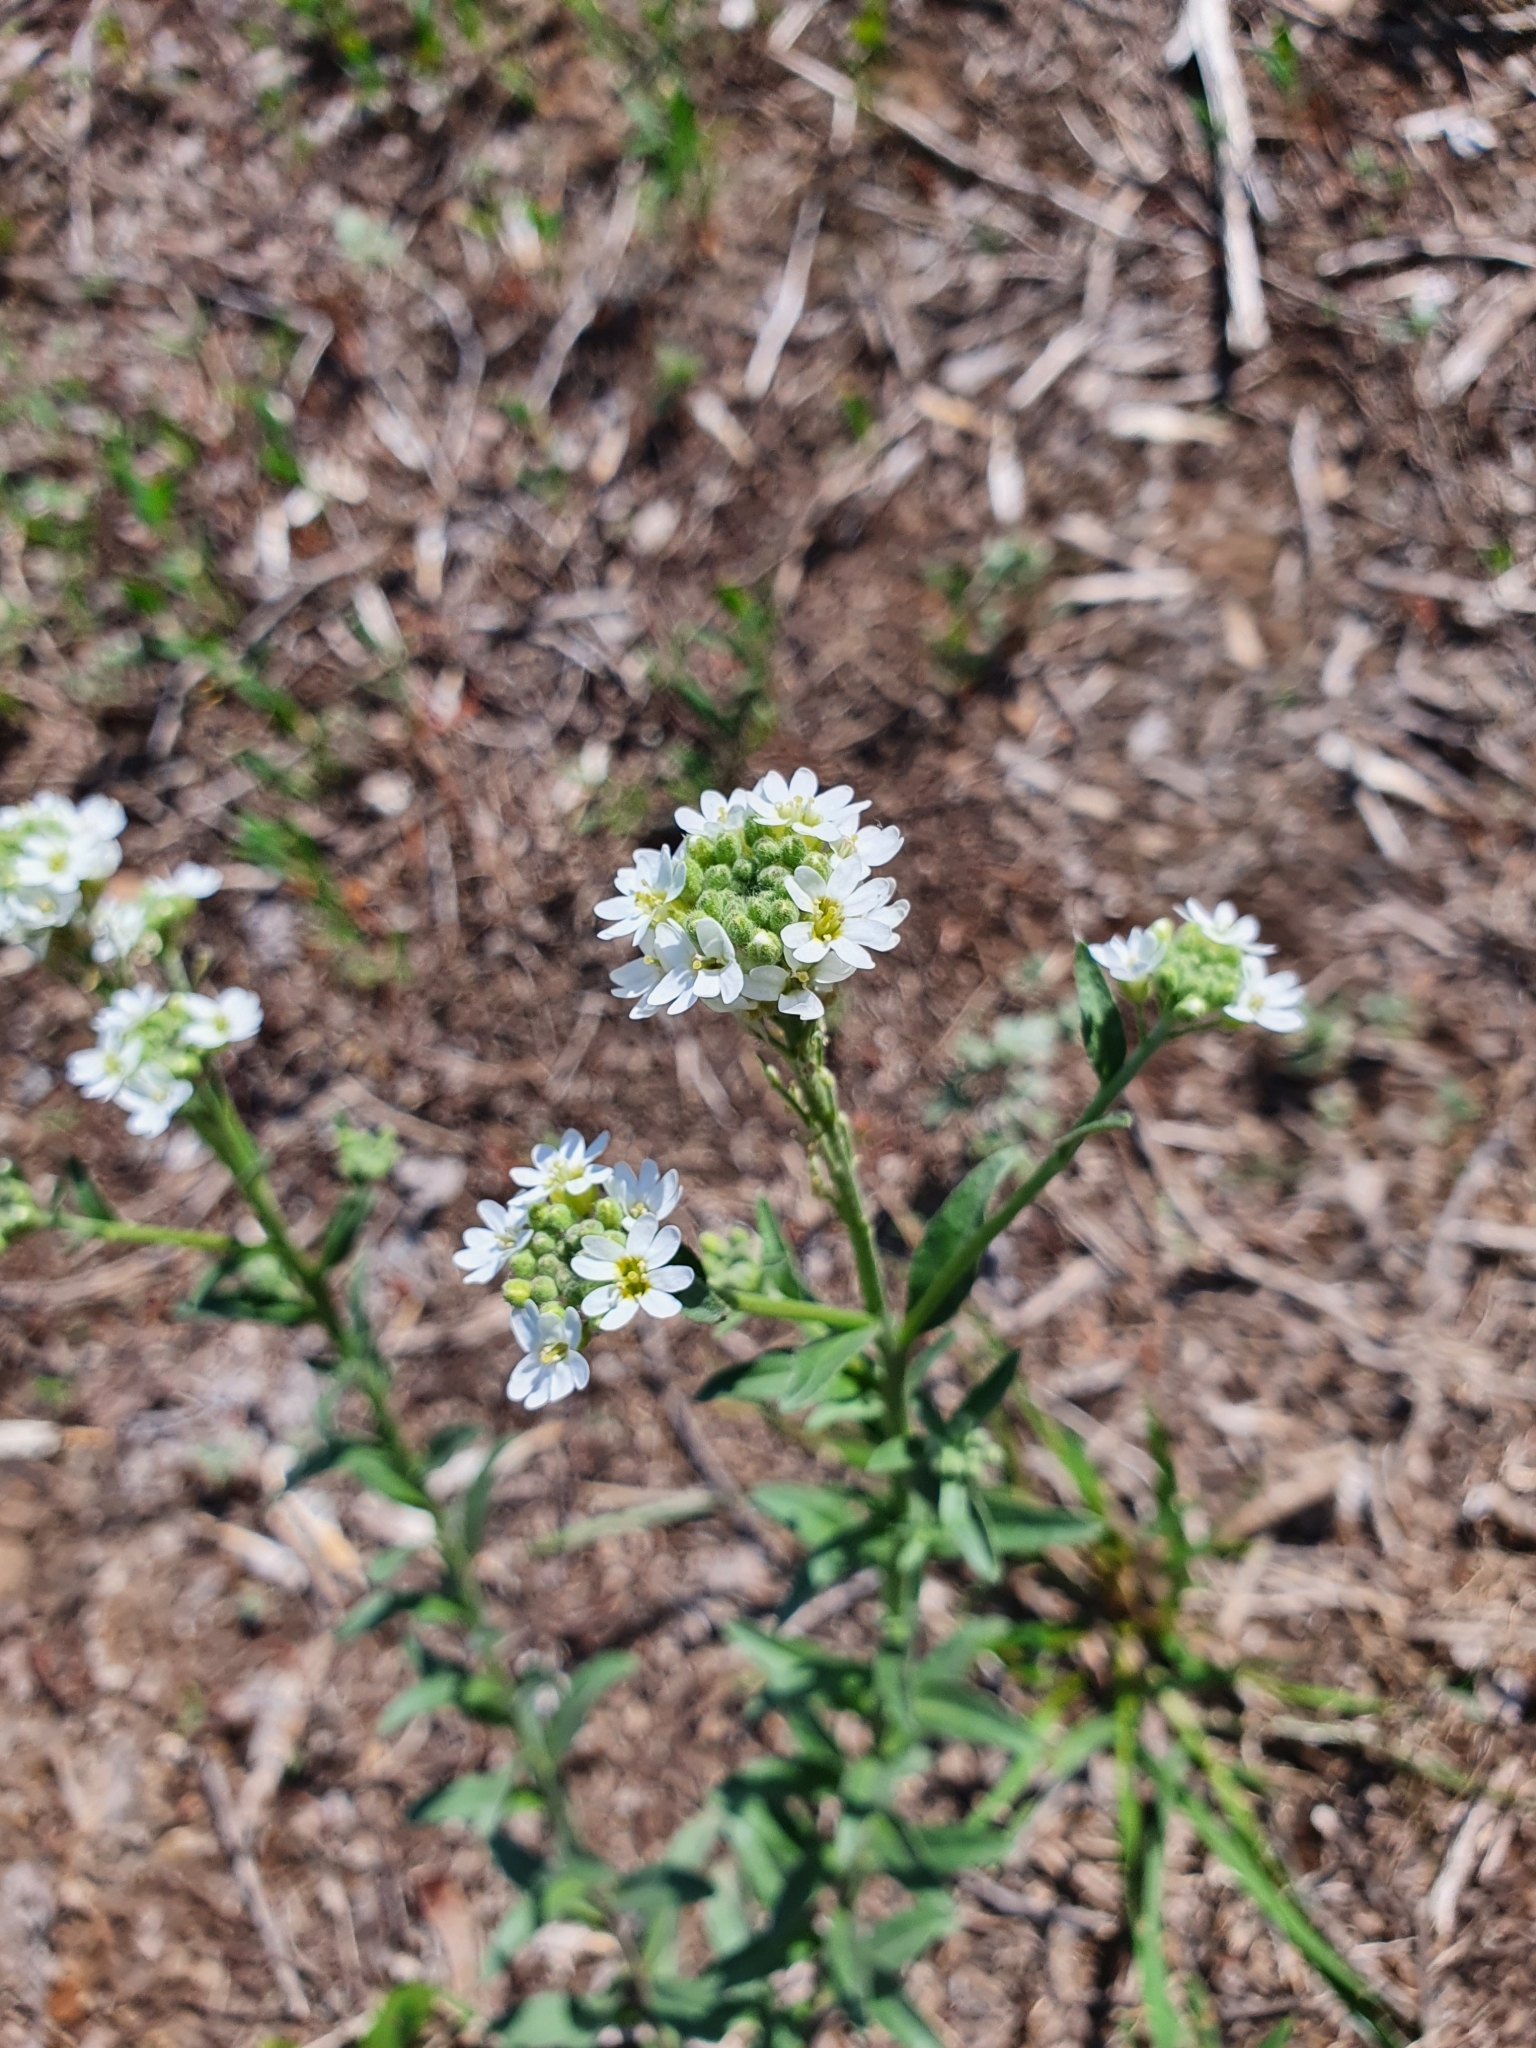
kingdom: Plantae
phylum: Tracheophyta
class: Magnoliopsida
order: Brassicales
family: Brassicaceae
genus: Berteroa
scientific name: Berteroa incana
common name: Hoary alison
